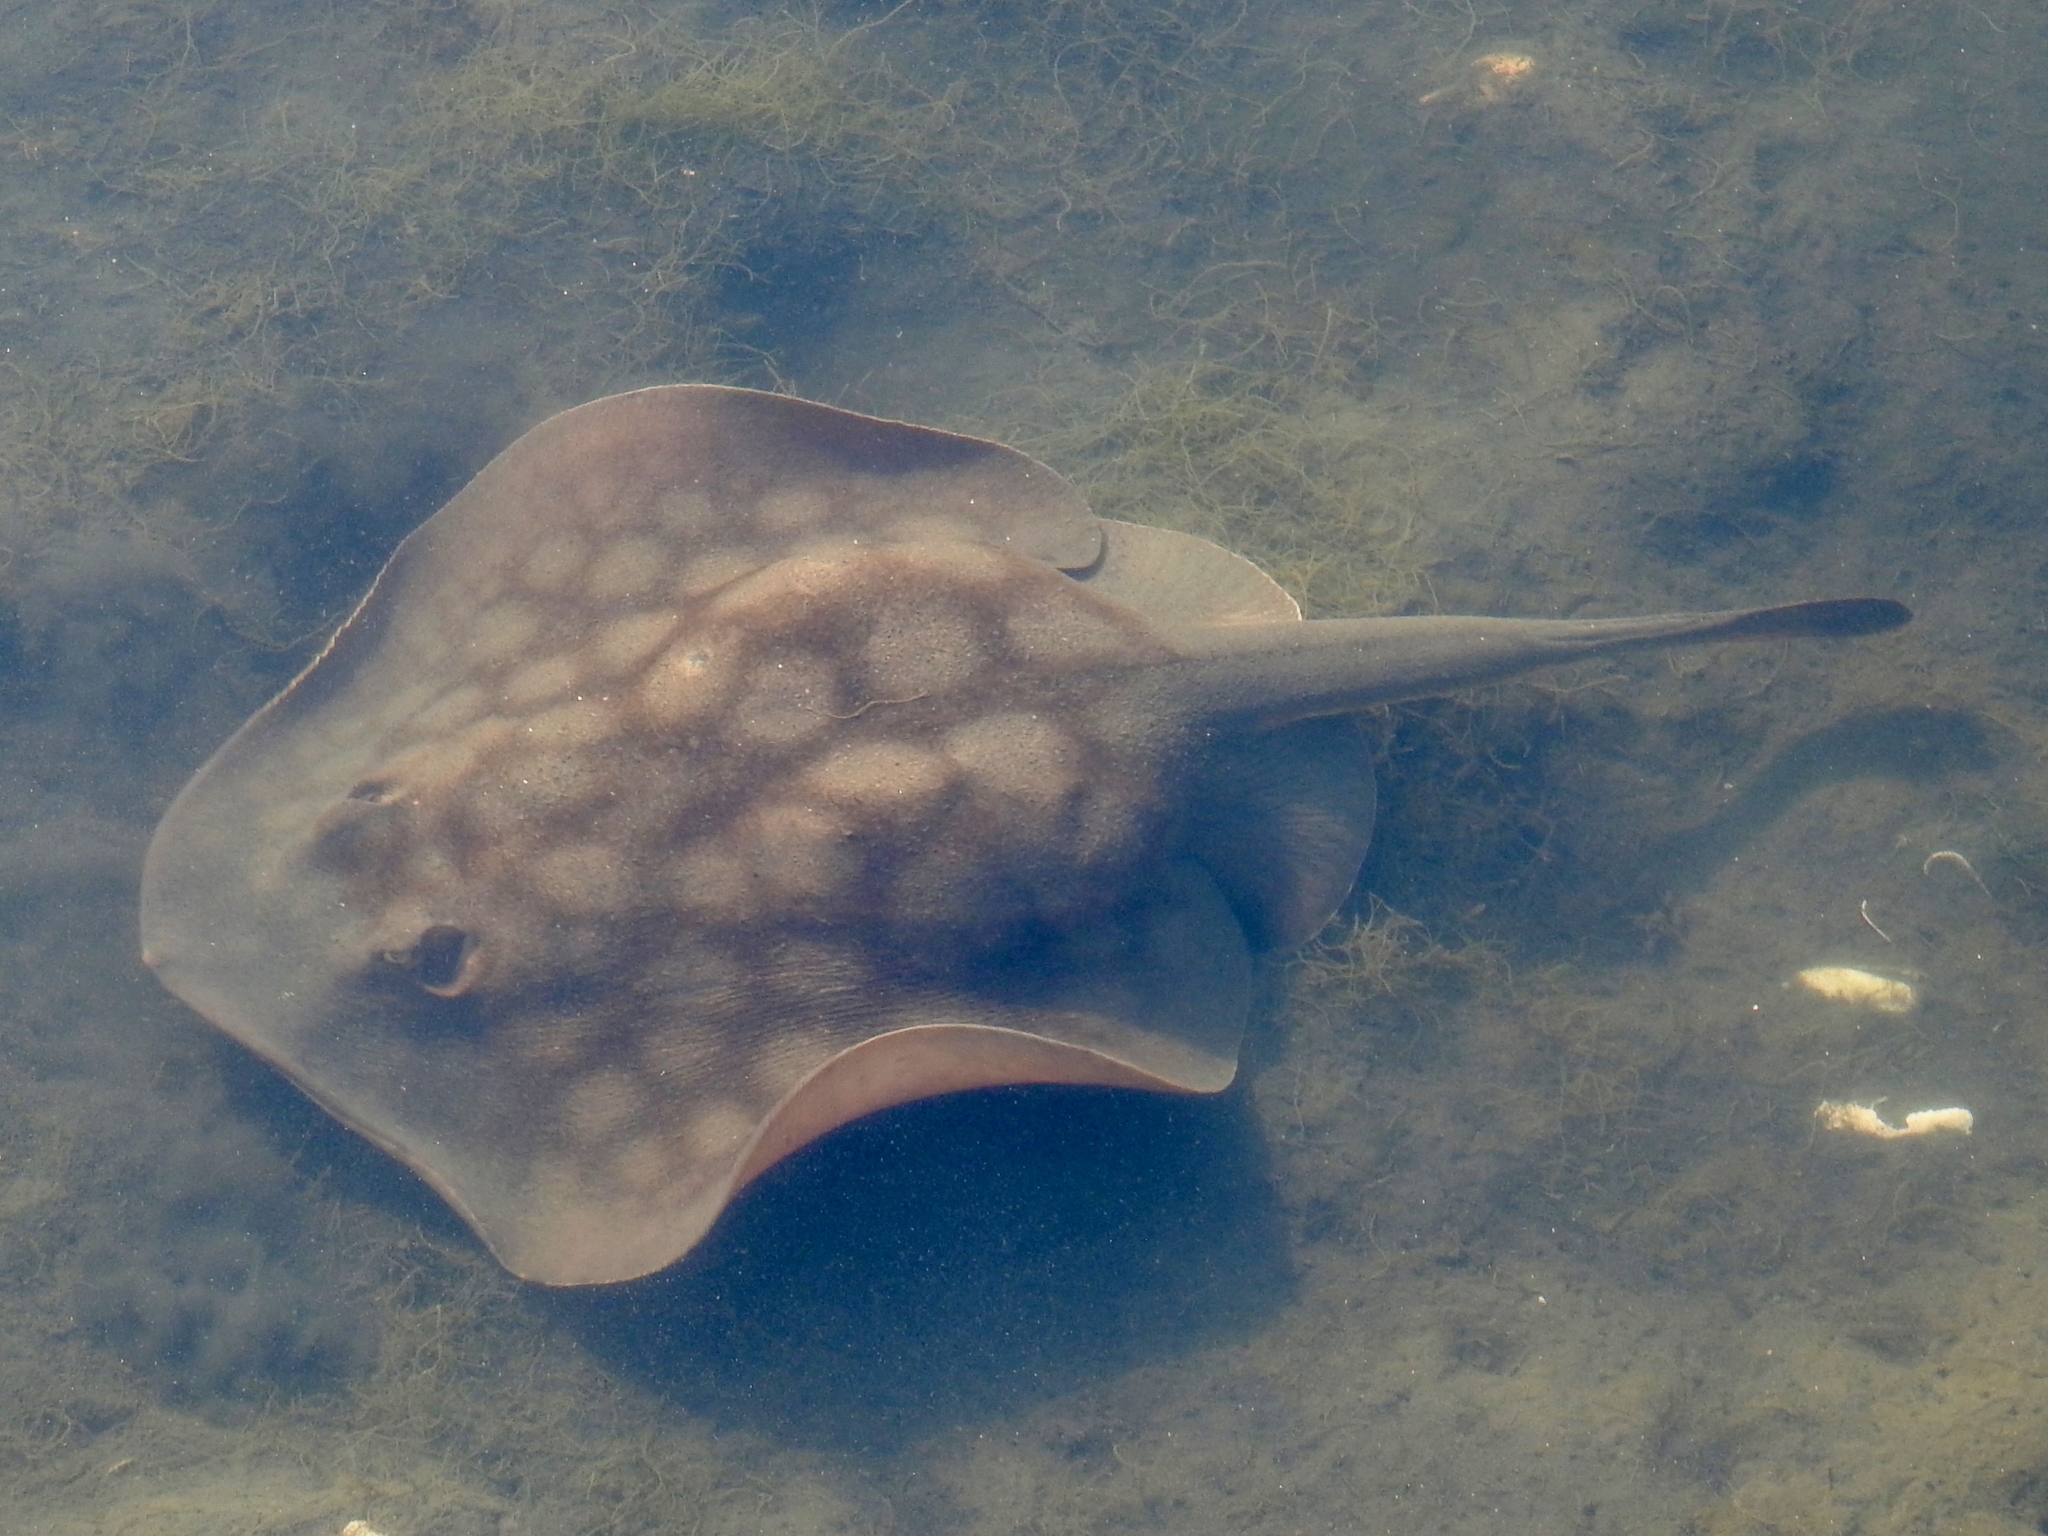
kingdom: Animalia
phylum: Chordata
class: Elasmobranchii
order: Myliobatiformes
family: Urolophidae
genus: Urolophus
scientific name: Urolophus halleri
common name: Round stingray
